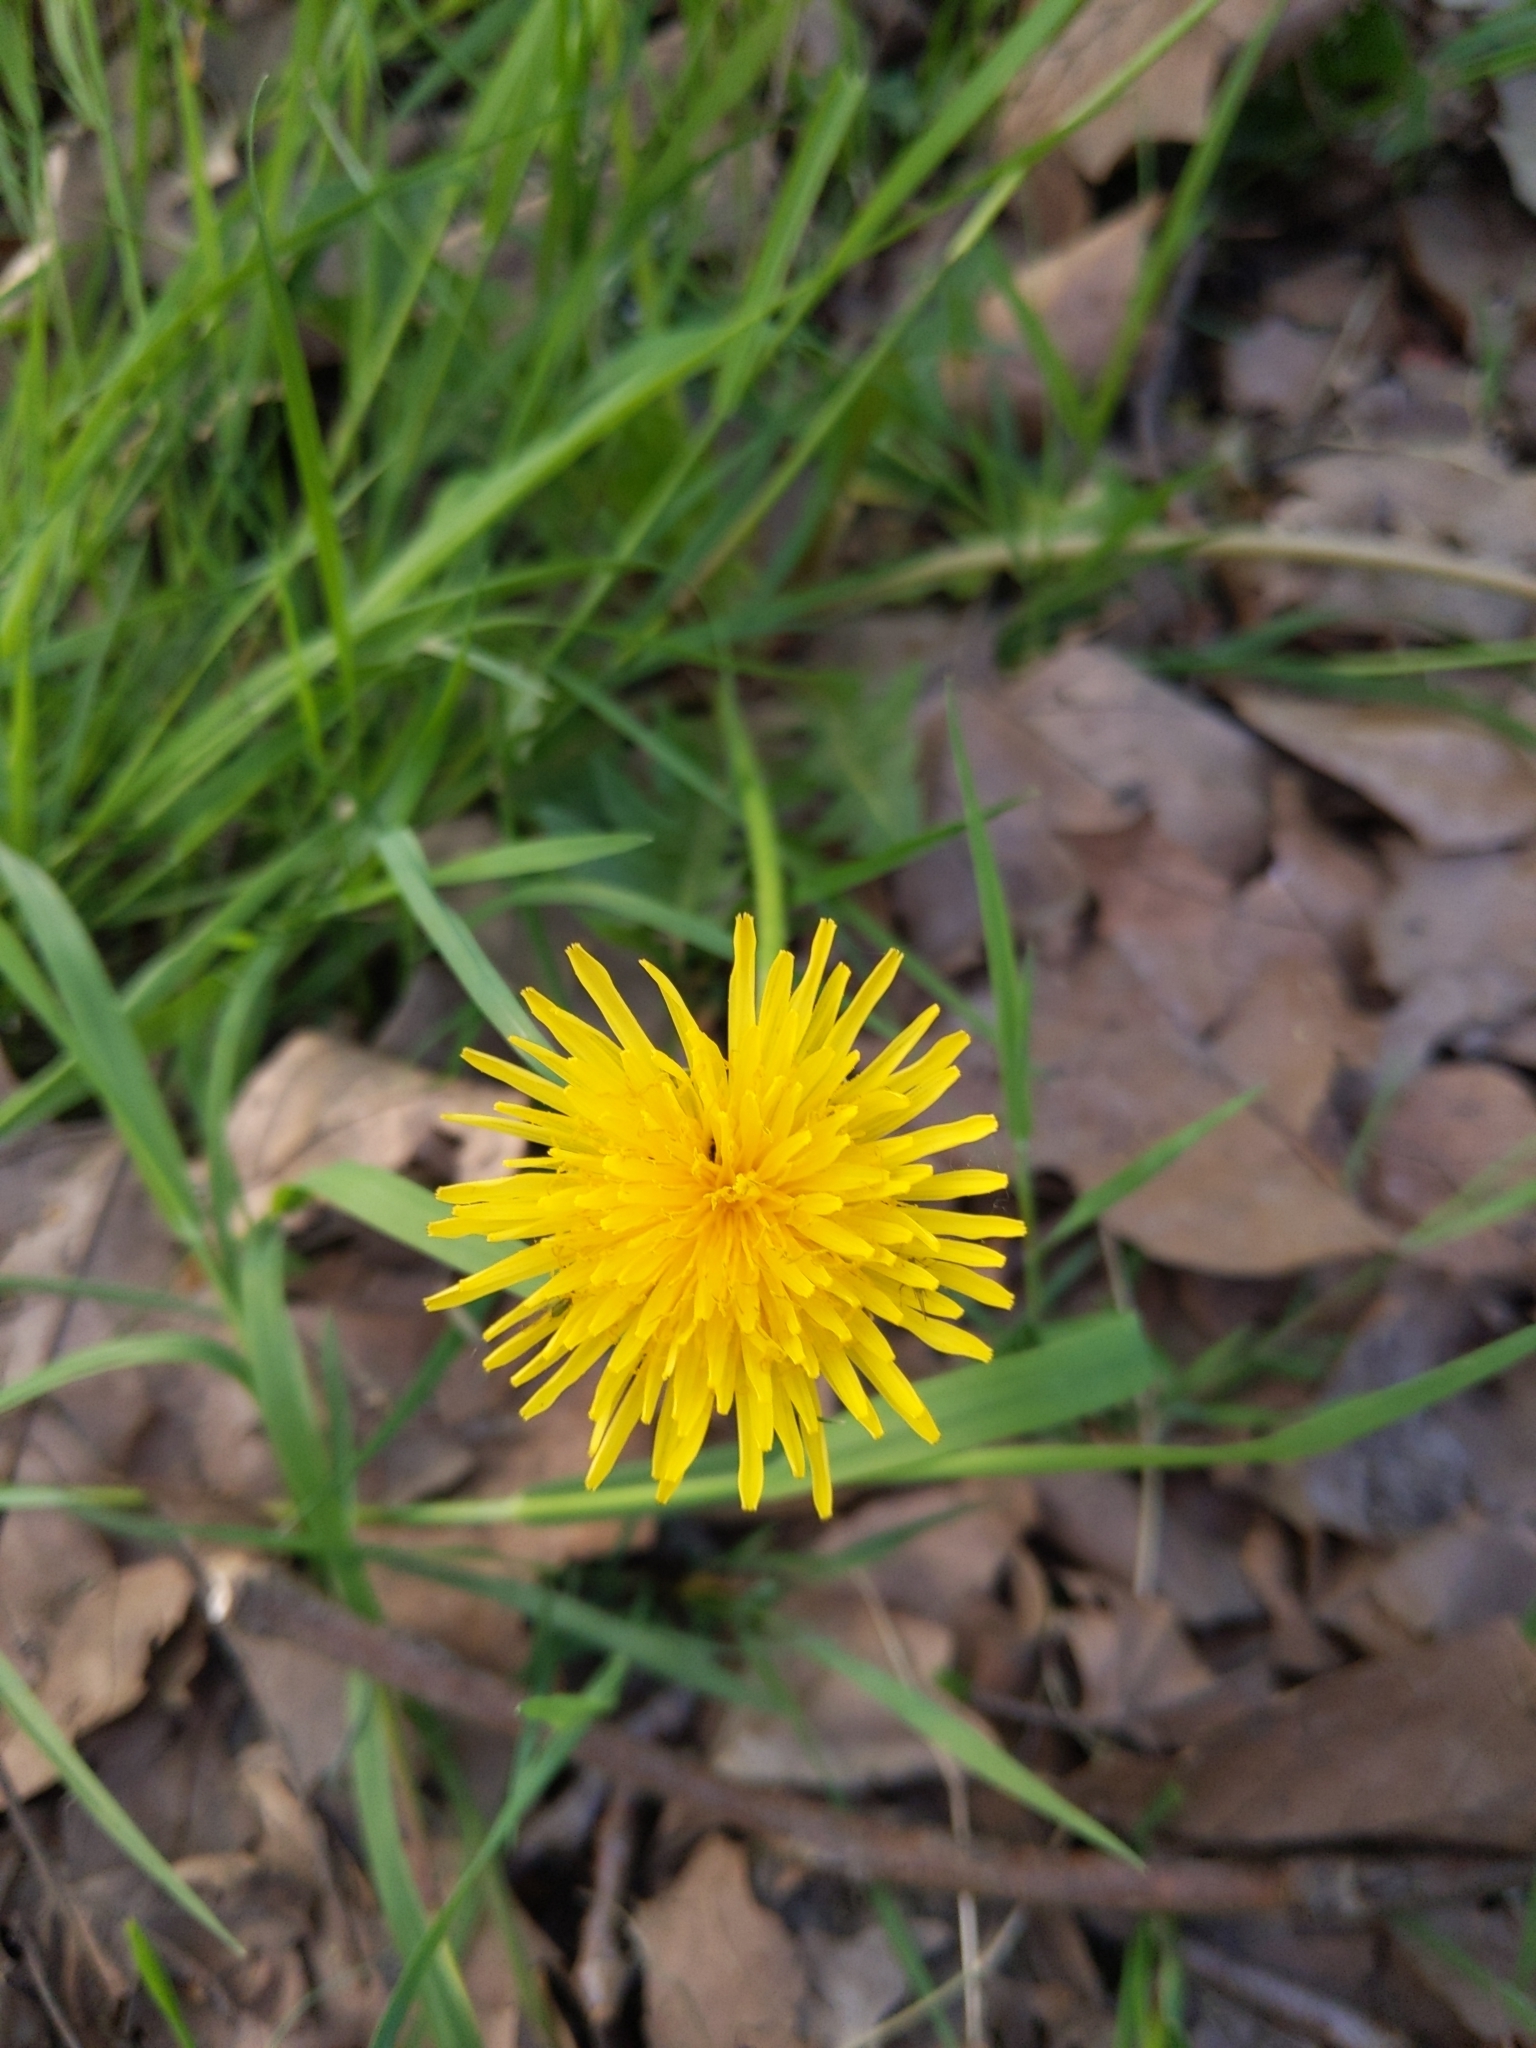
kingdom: Plantae
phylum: Tracheophyta
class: Magnoliopsida
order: Asterales
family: Asteraceae
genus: Taraxacum
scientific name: Taraxacum officinale
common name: Common dandelion
